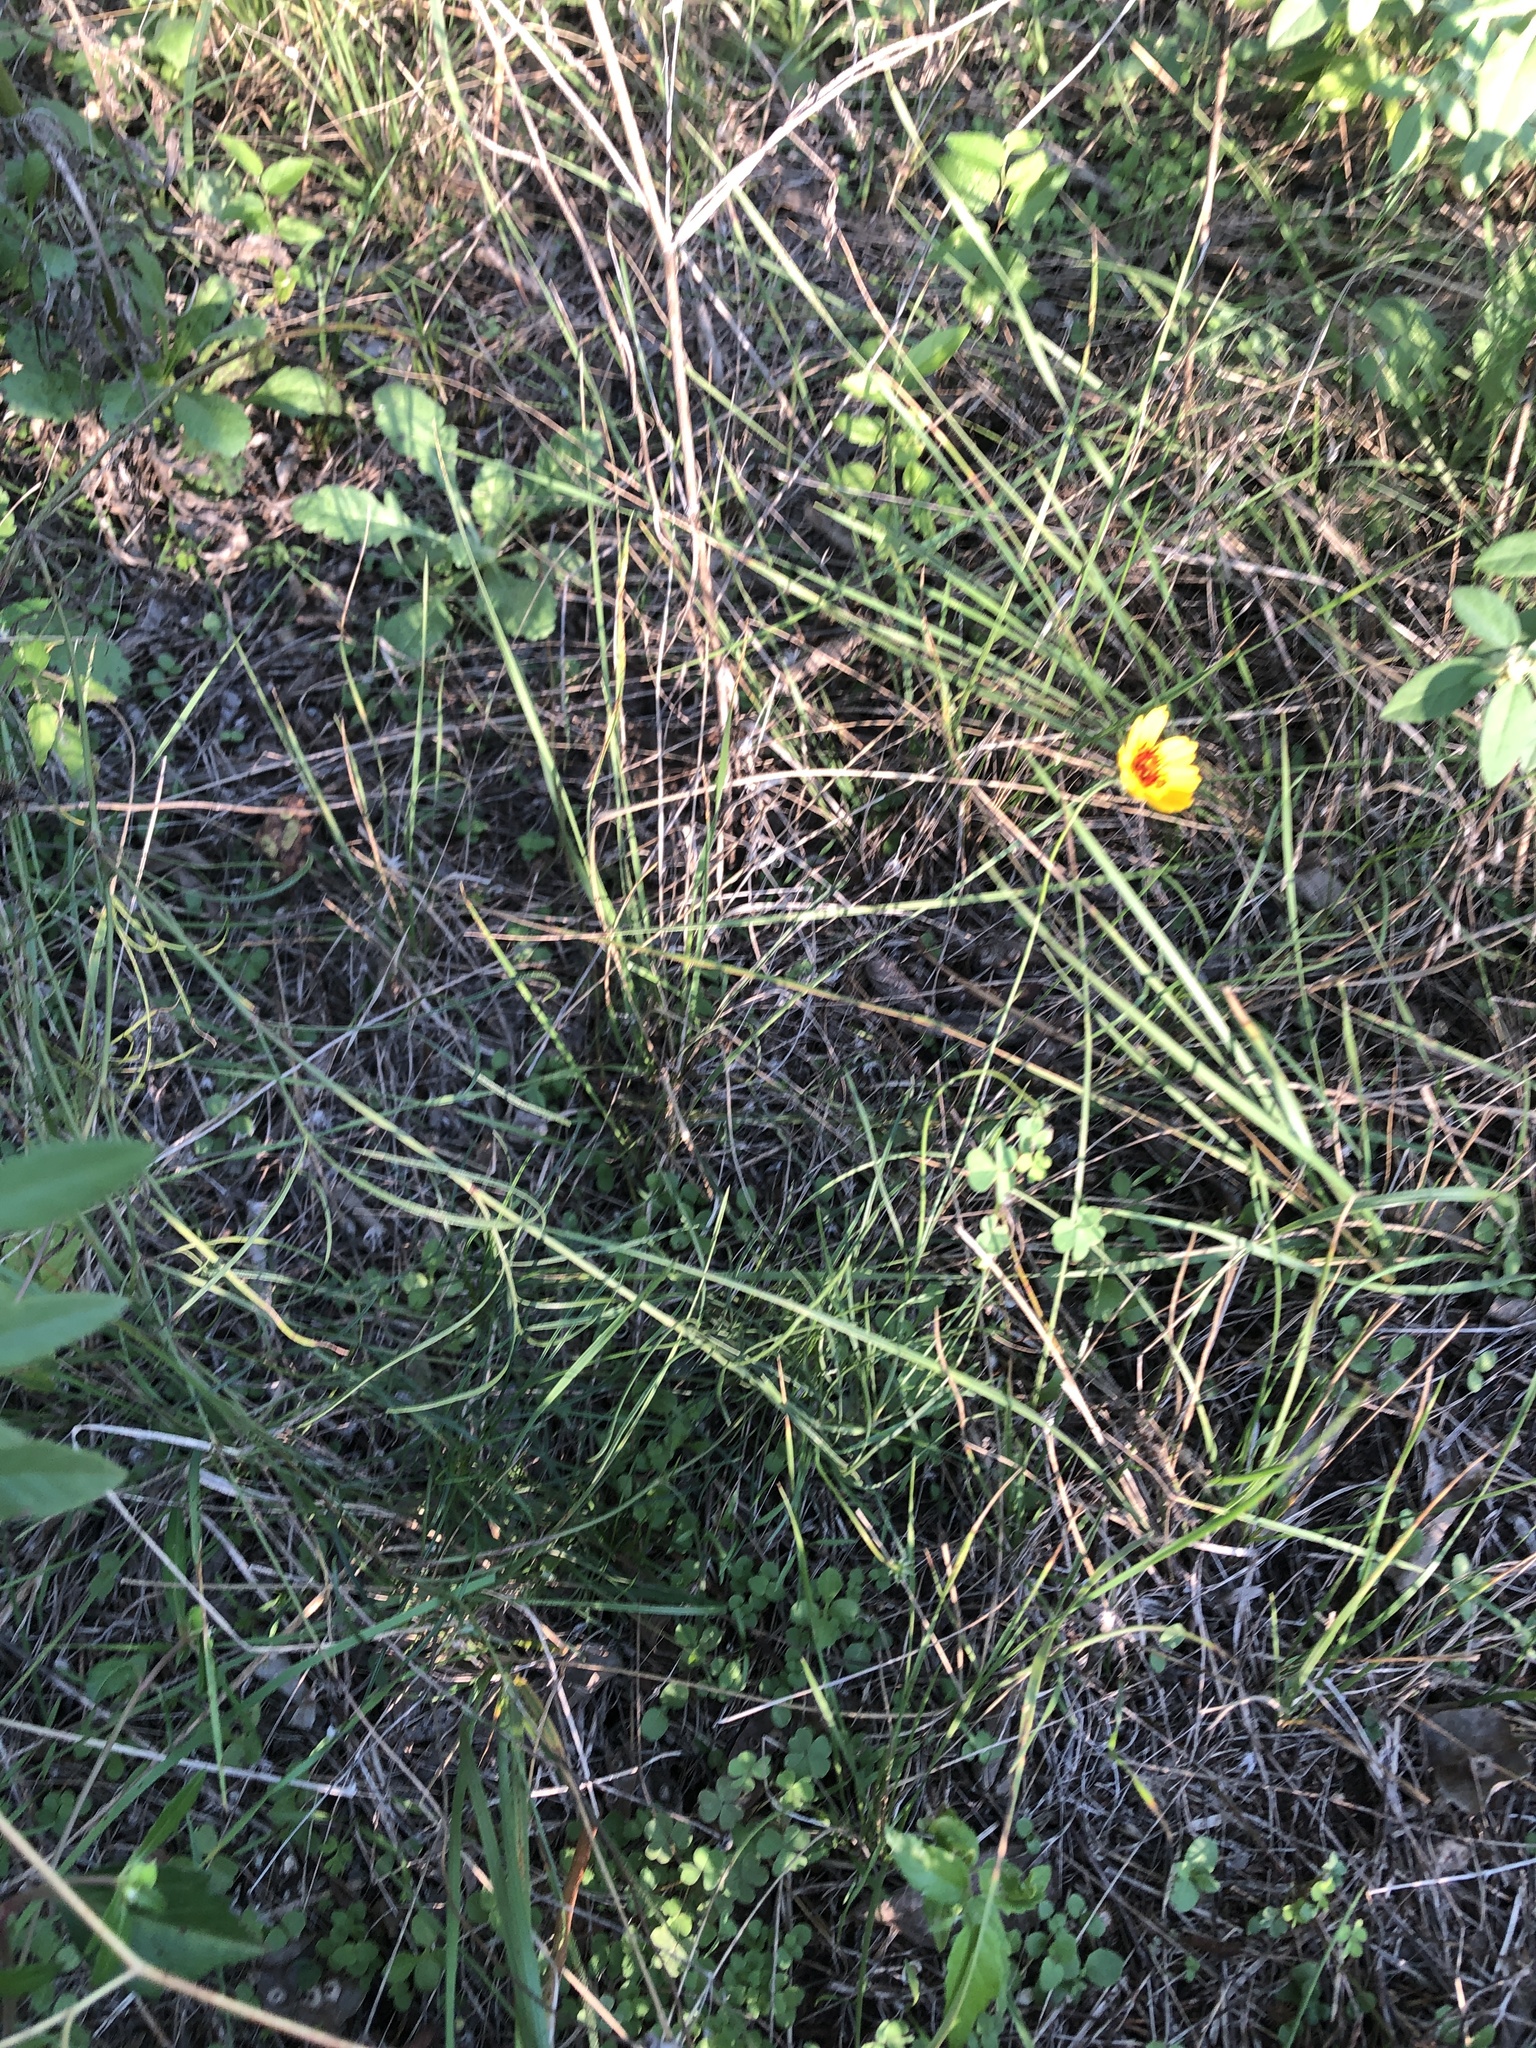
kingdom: Plantae
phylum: Tracheophyta
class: Magnoliopsida
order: Asterales
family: Asteraceae
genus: Thelesperma
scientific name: Thelesperma filifolium
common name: Stiff greenthread
